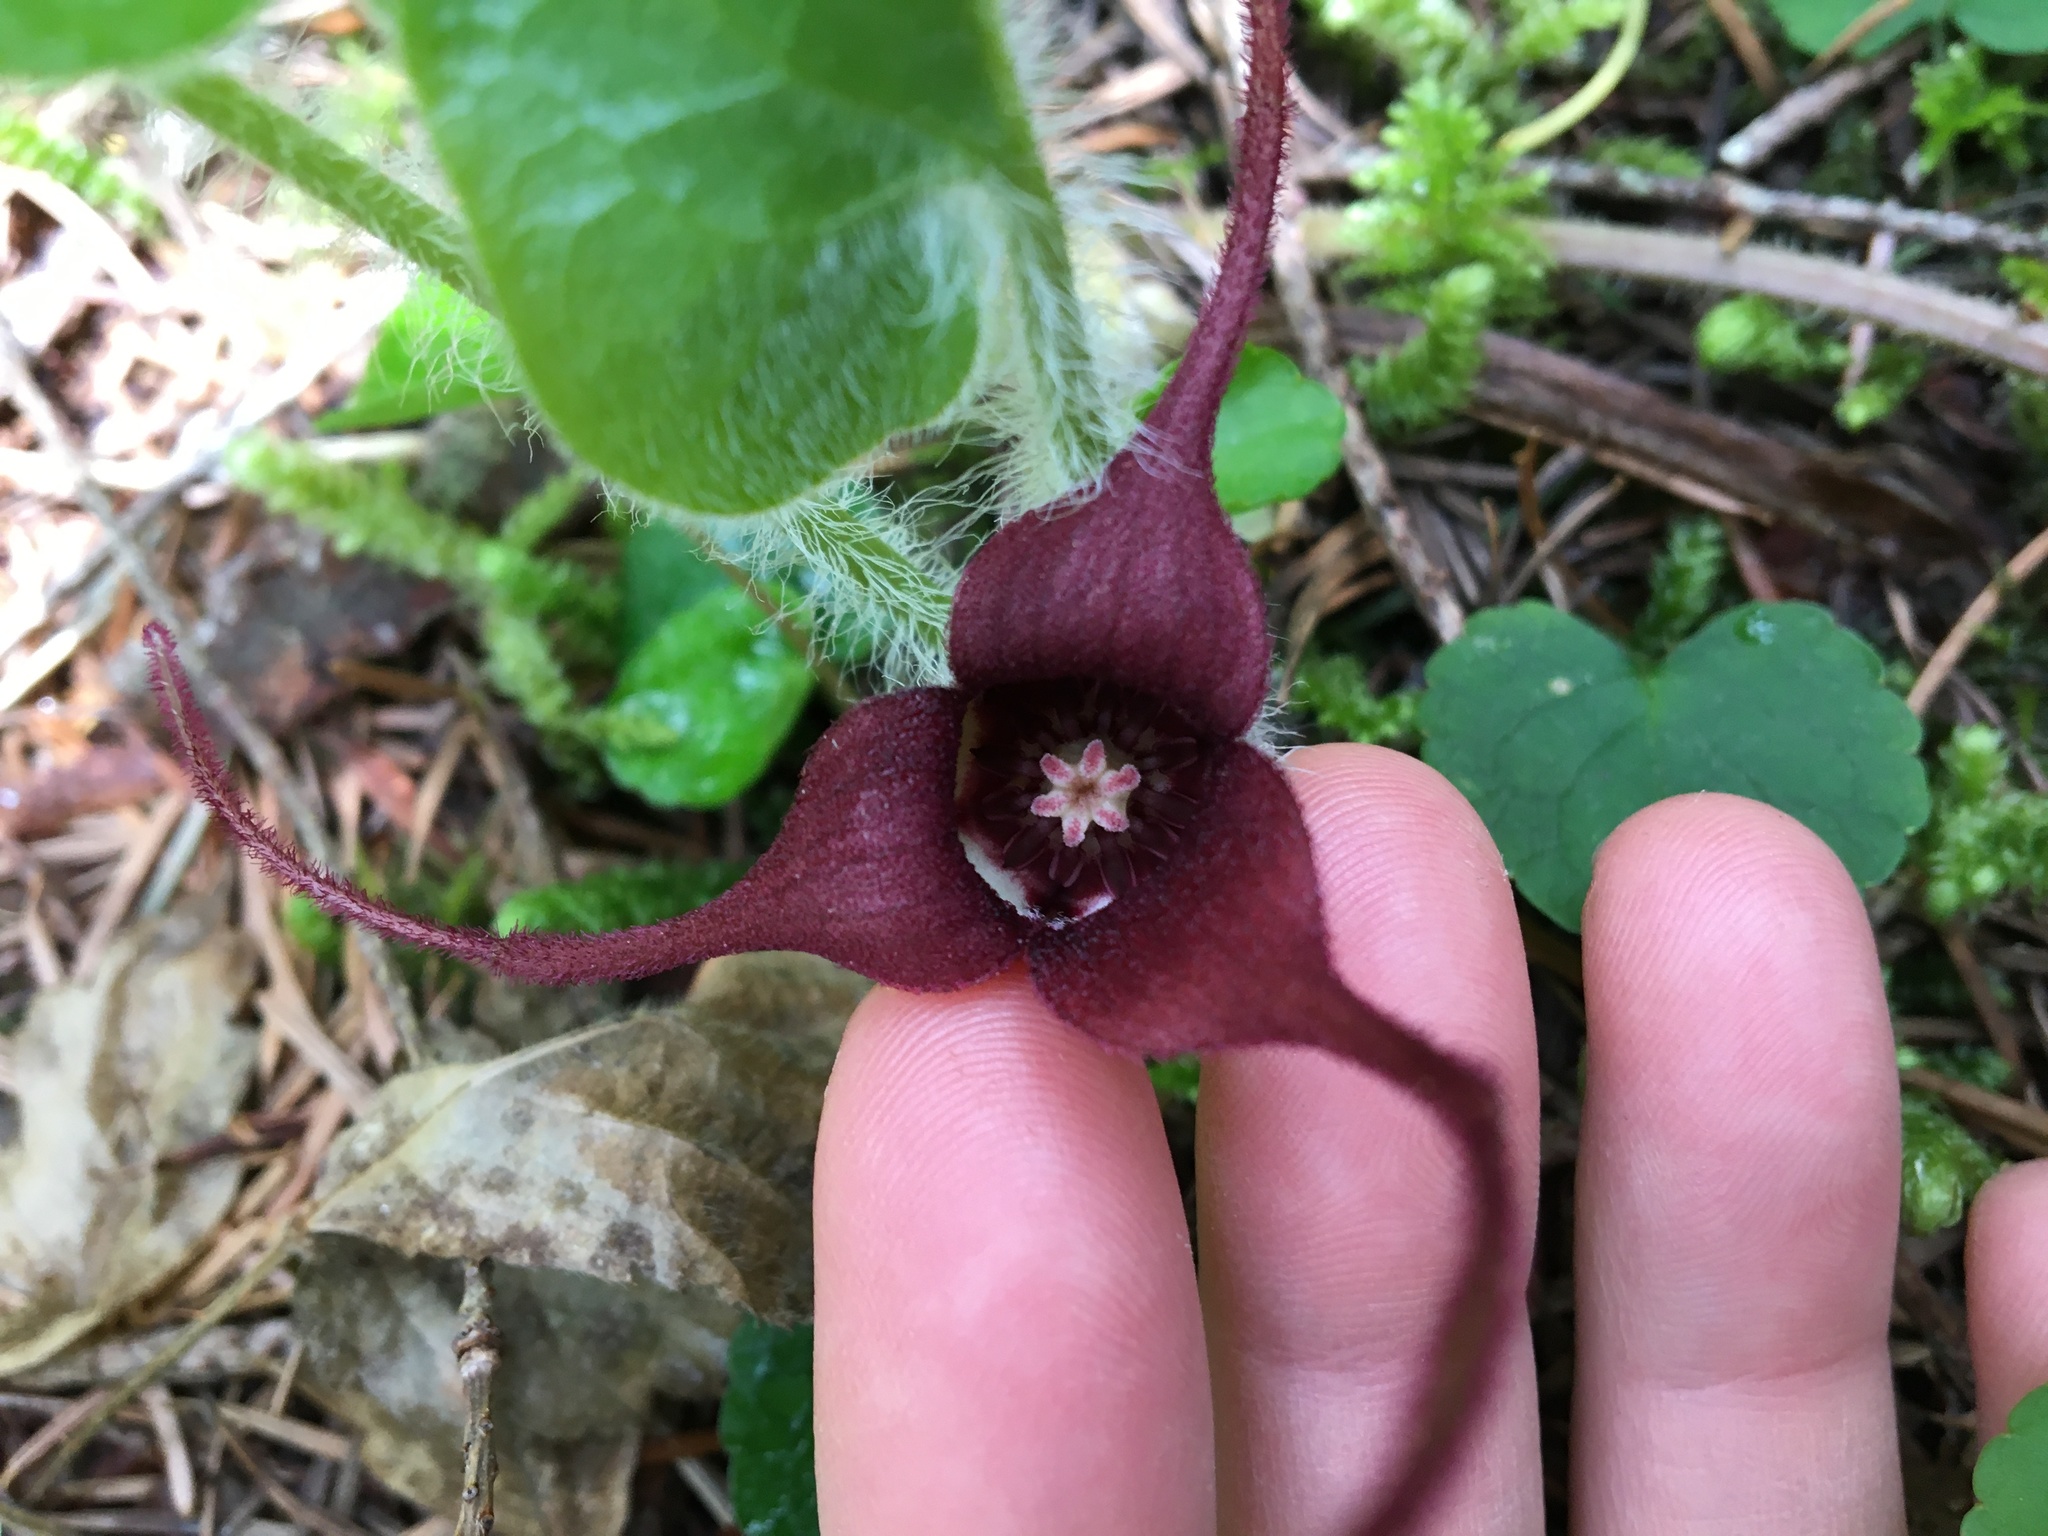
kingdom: Plantae
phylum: Tracheophyta
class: Magnoliopsida
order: Piperales
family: Aristolochiaceae
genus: Asarum
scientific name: Asarum caudatum
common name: Wild ginger
